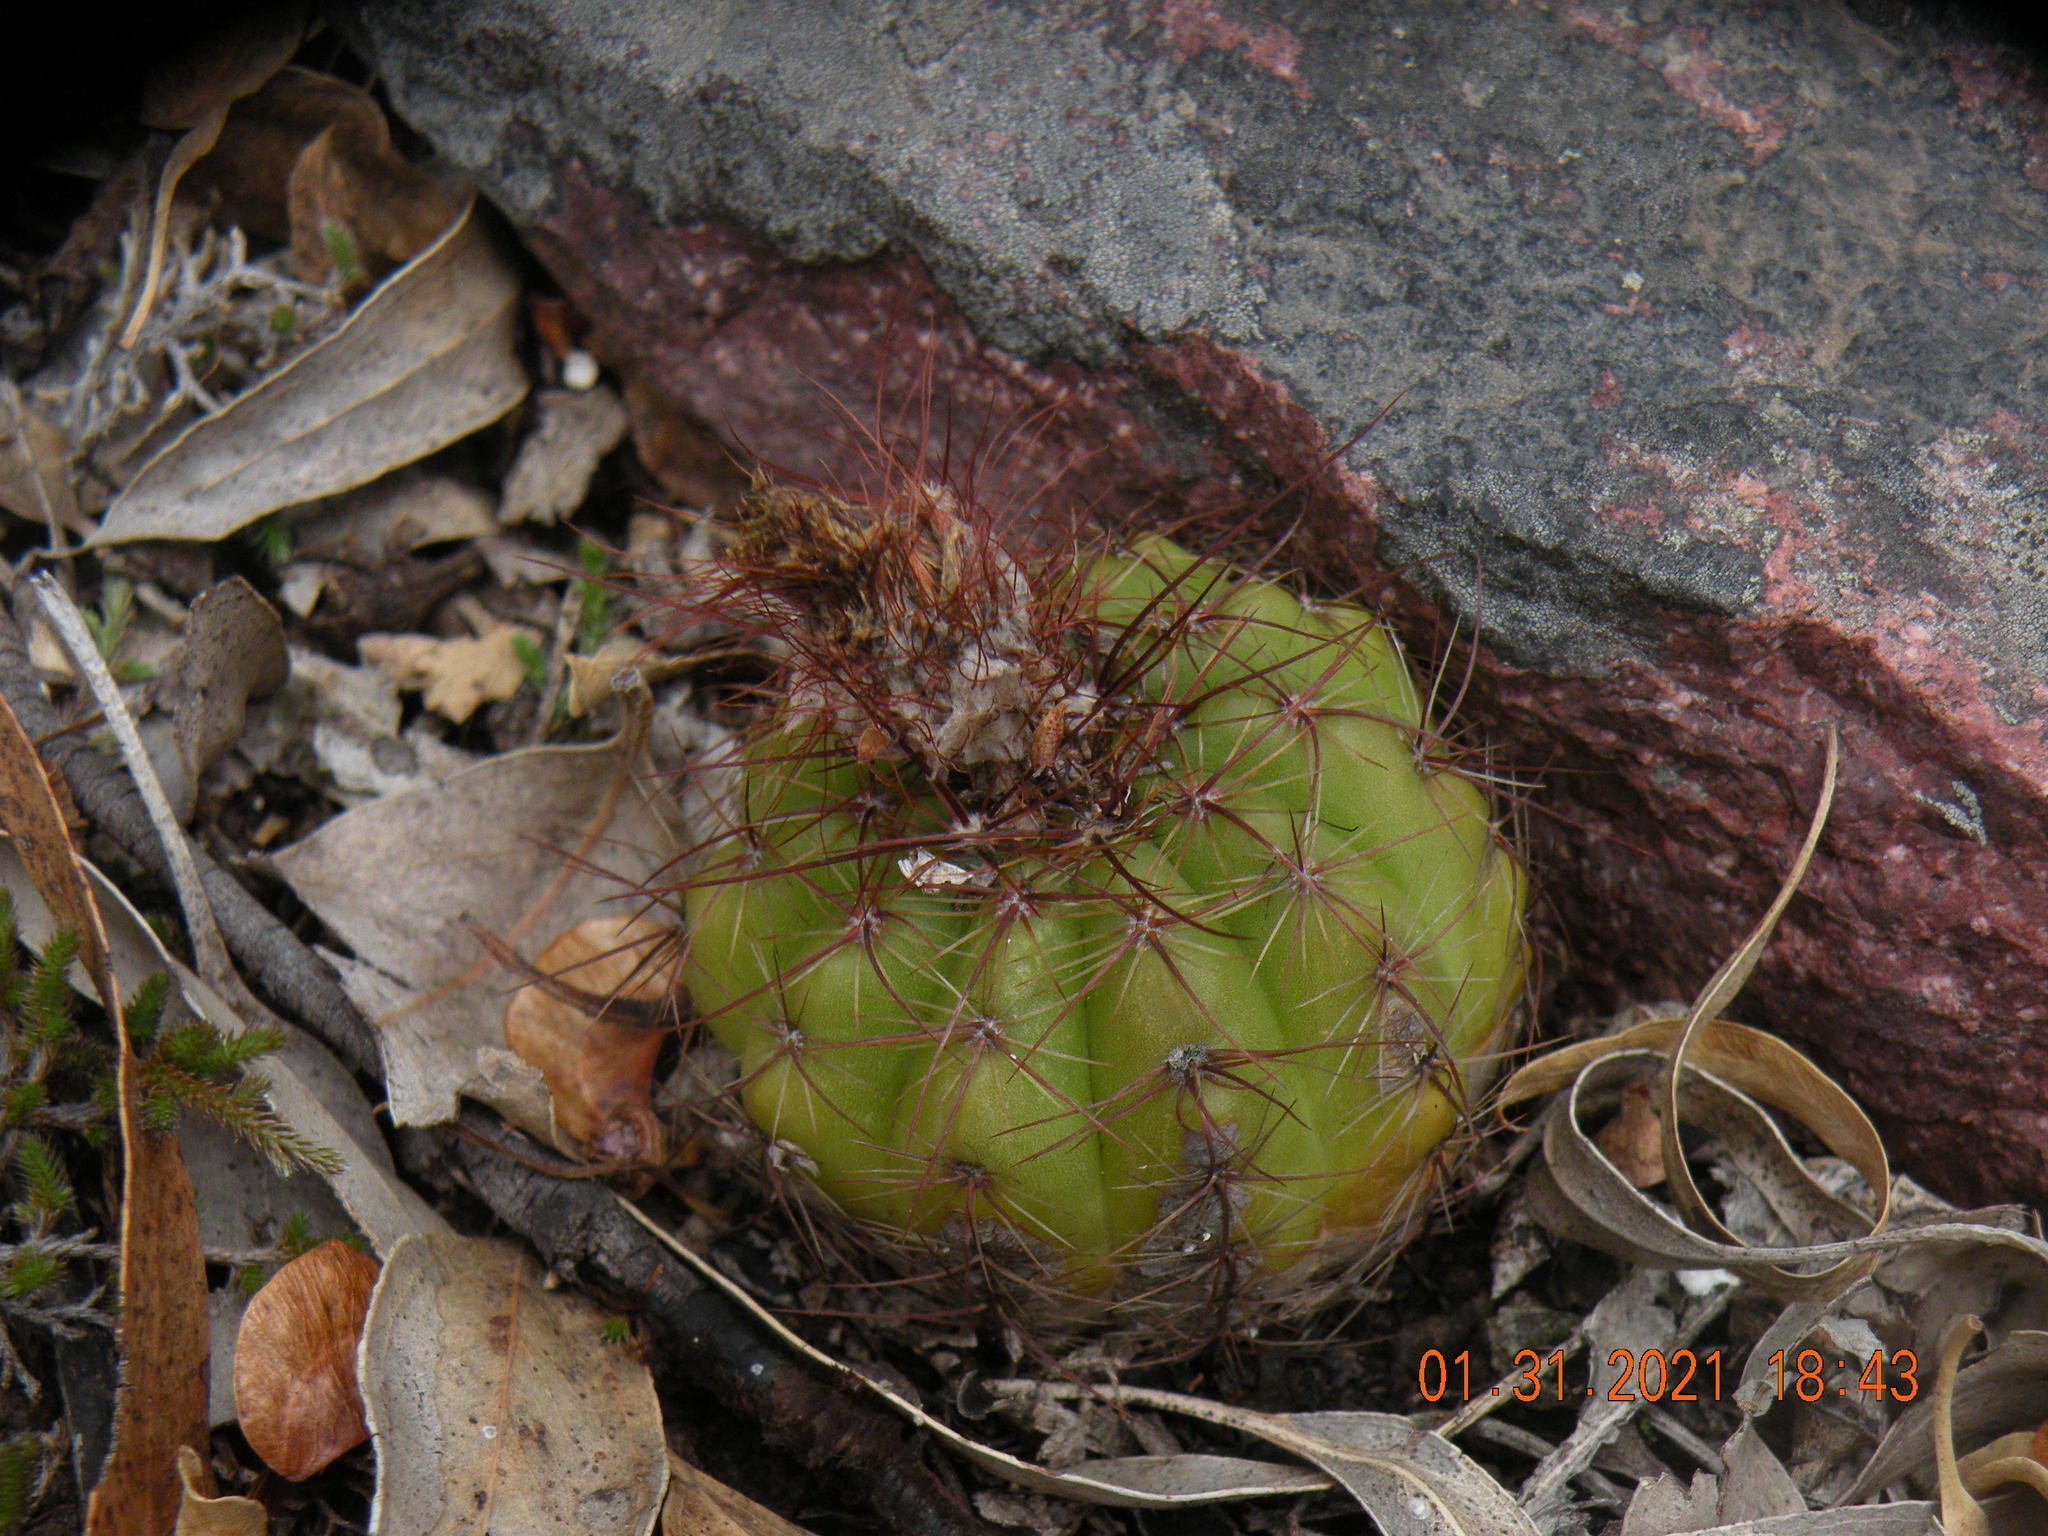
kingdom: Plantae
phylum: Tracheophyta
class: Magnoliopsida
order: Caryophyllales
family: Cactaceae
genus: Parodia
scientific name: Parodia ottonis
